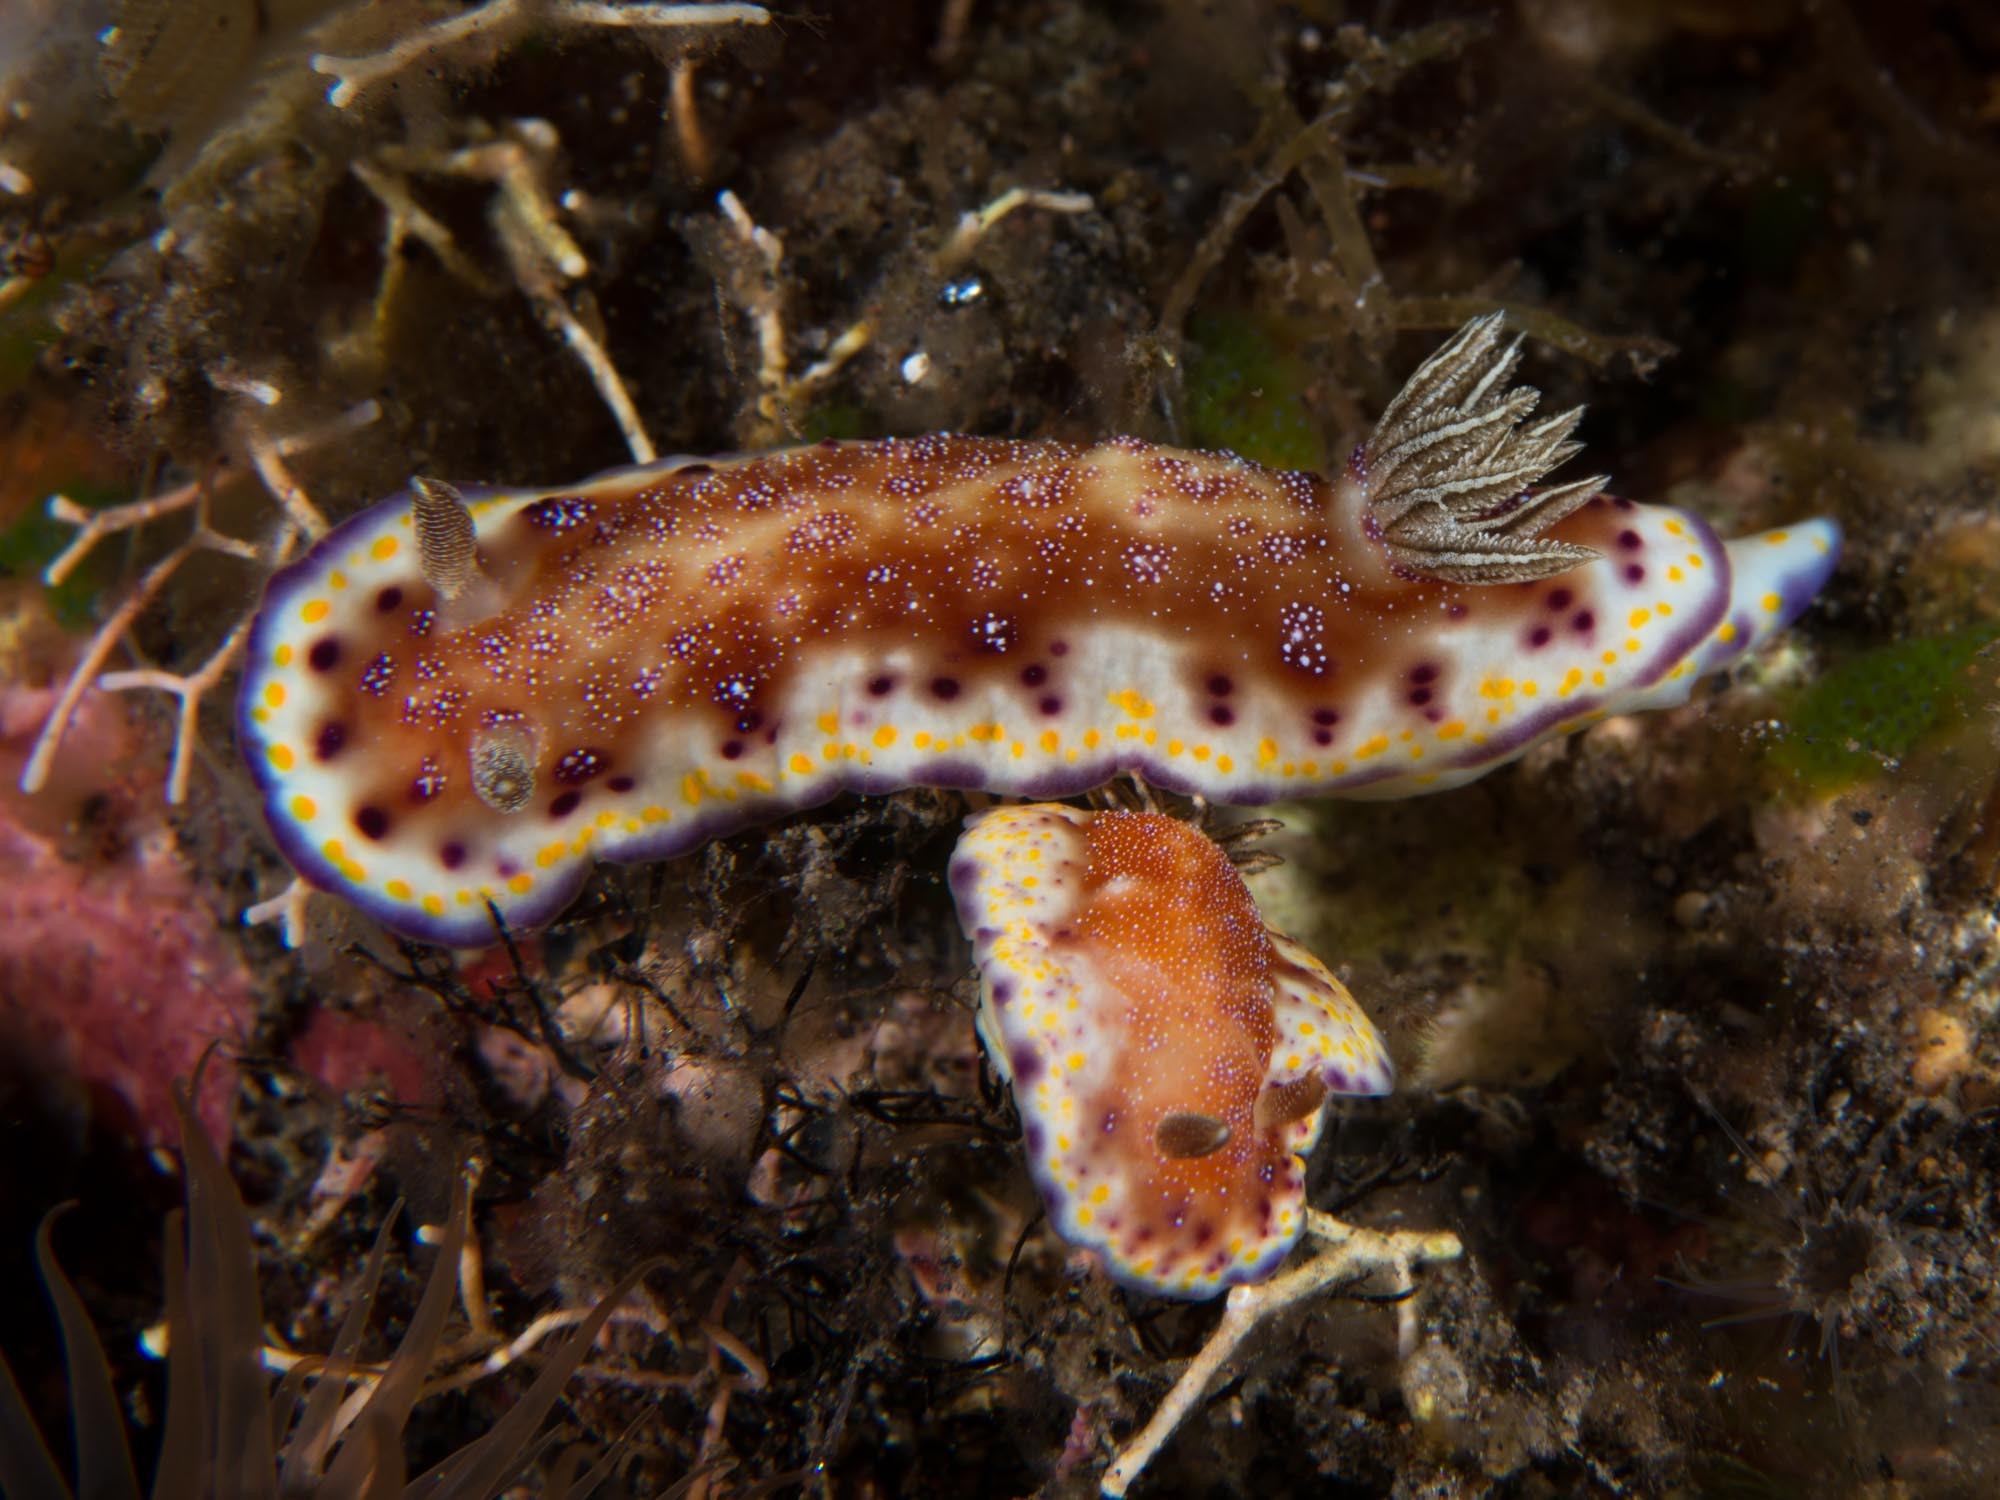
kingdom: Animalia
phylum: Mollusca
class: Gastropoda
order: Nudibranchia
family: Chromodorididae
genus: Goniobranchus
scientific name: Goniobranchus collingwoodi
